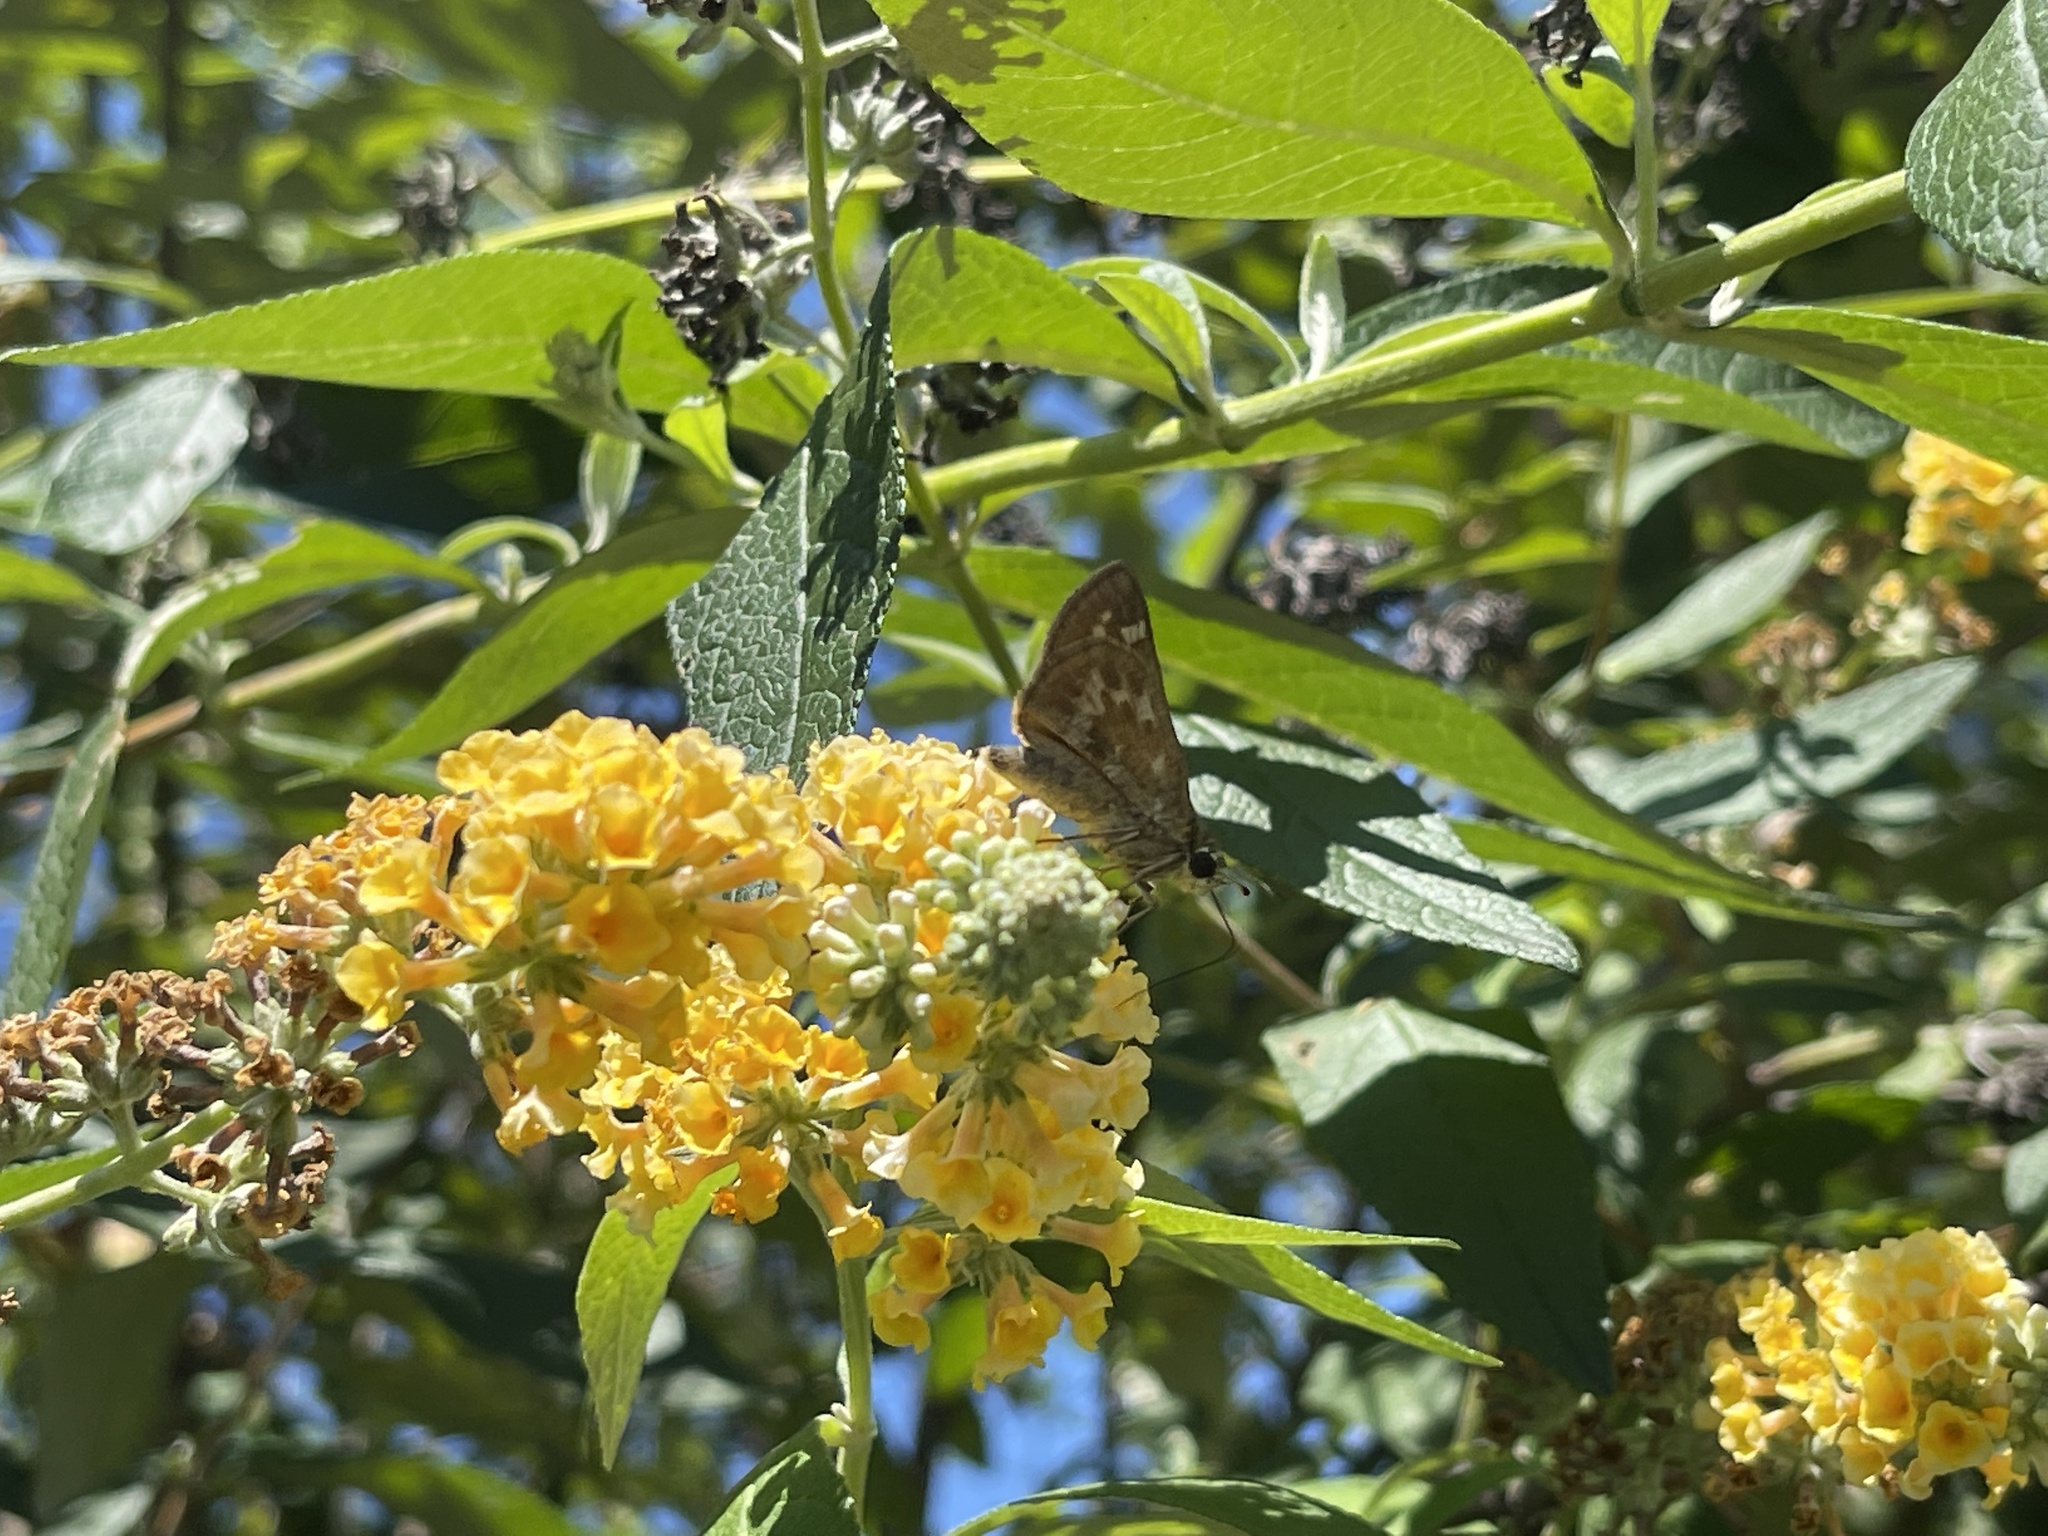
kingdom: Animalia
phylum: Arthropoda
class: Insecta
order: Lepidoptera
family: Hesperiidae
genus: Atalopedes
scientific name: Atalopedes
